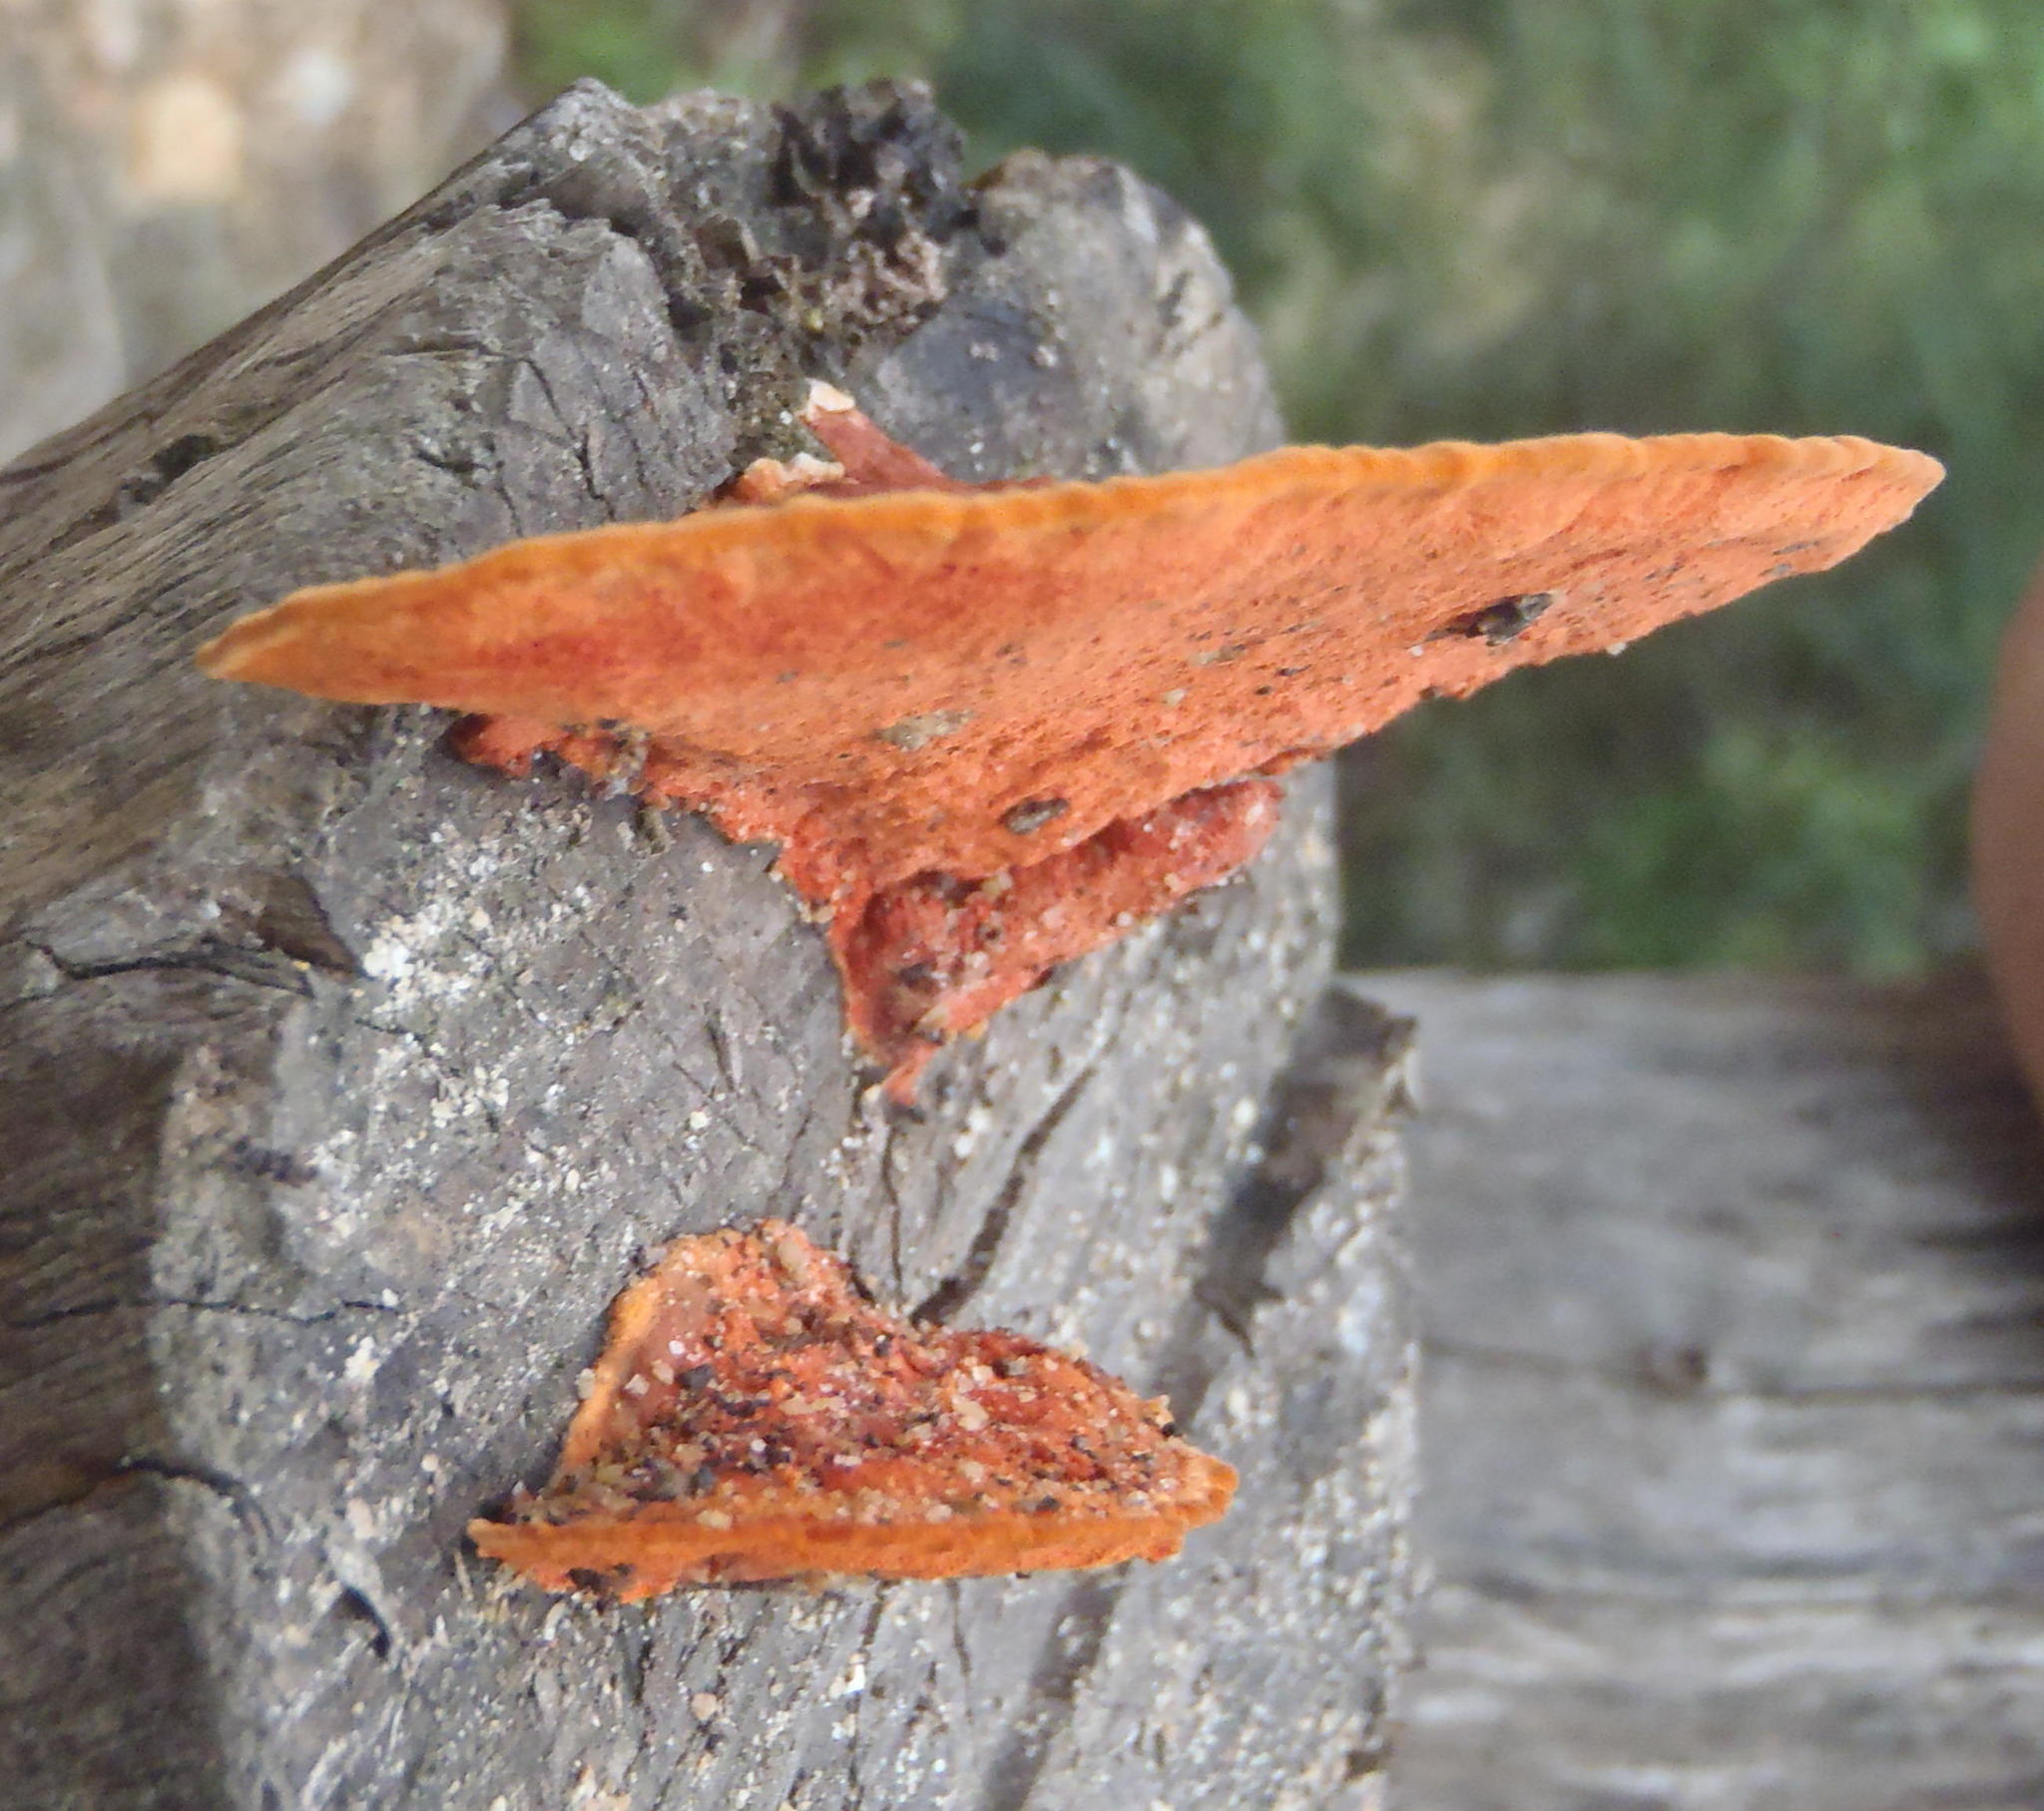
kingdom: Fungi
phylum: Basidiomycota
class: Agaricomycetes
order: Polyporales
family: Polyporaceae
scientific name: Polyporaceae
